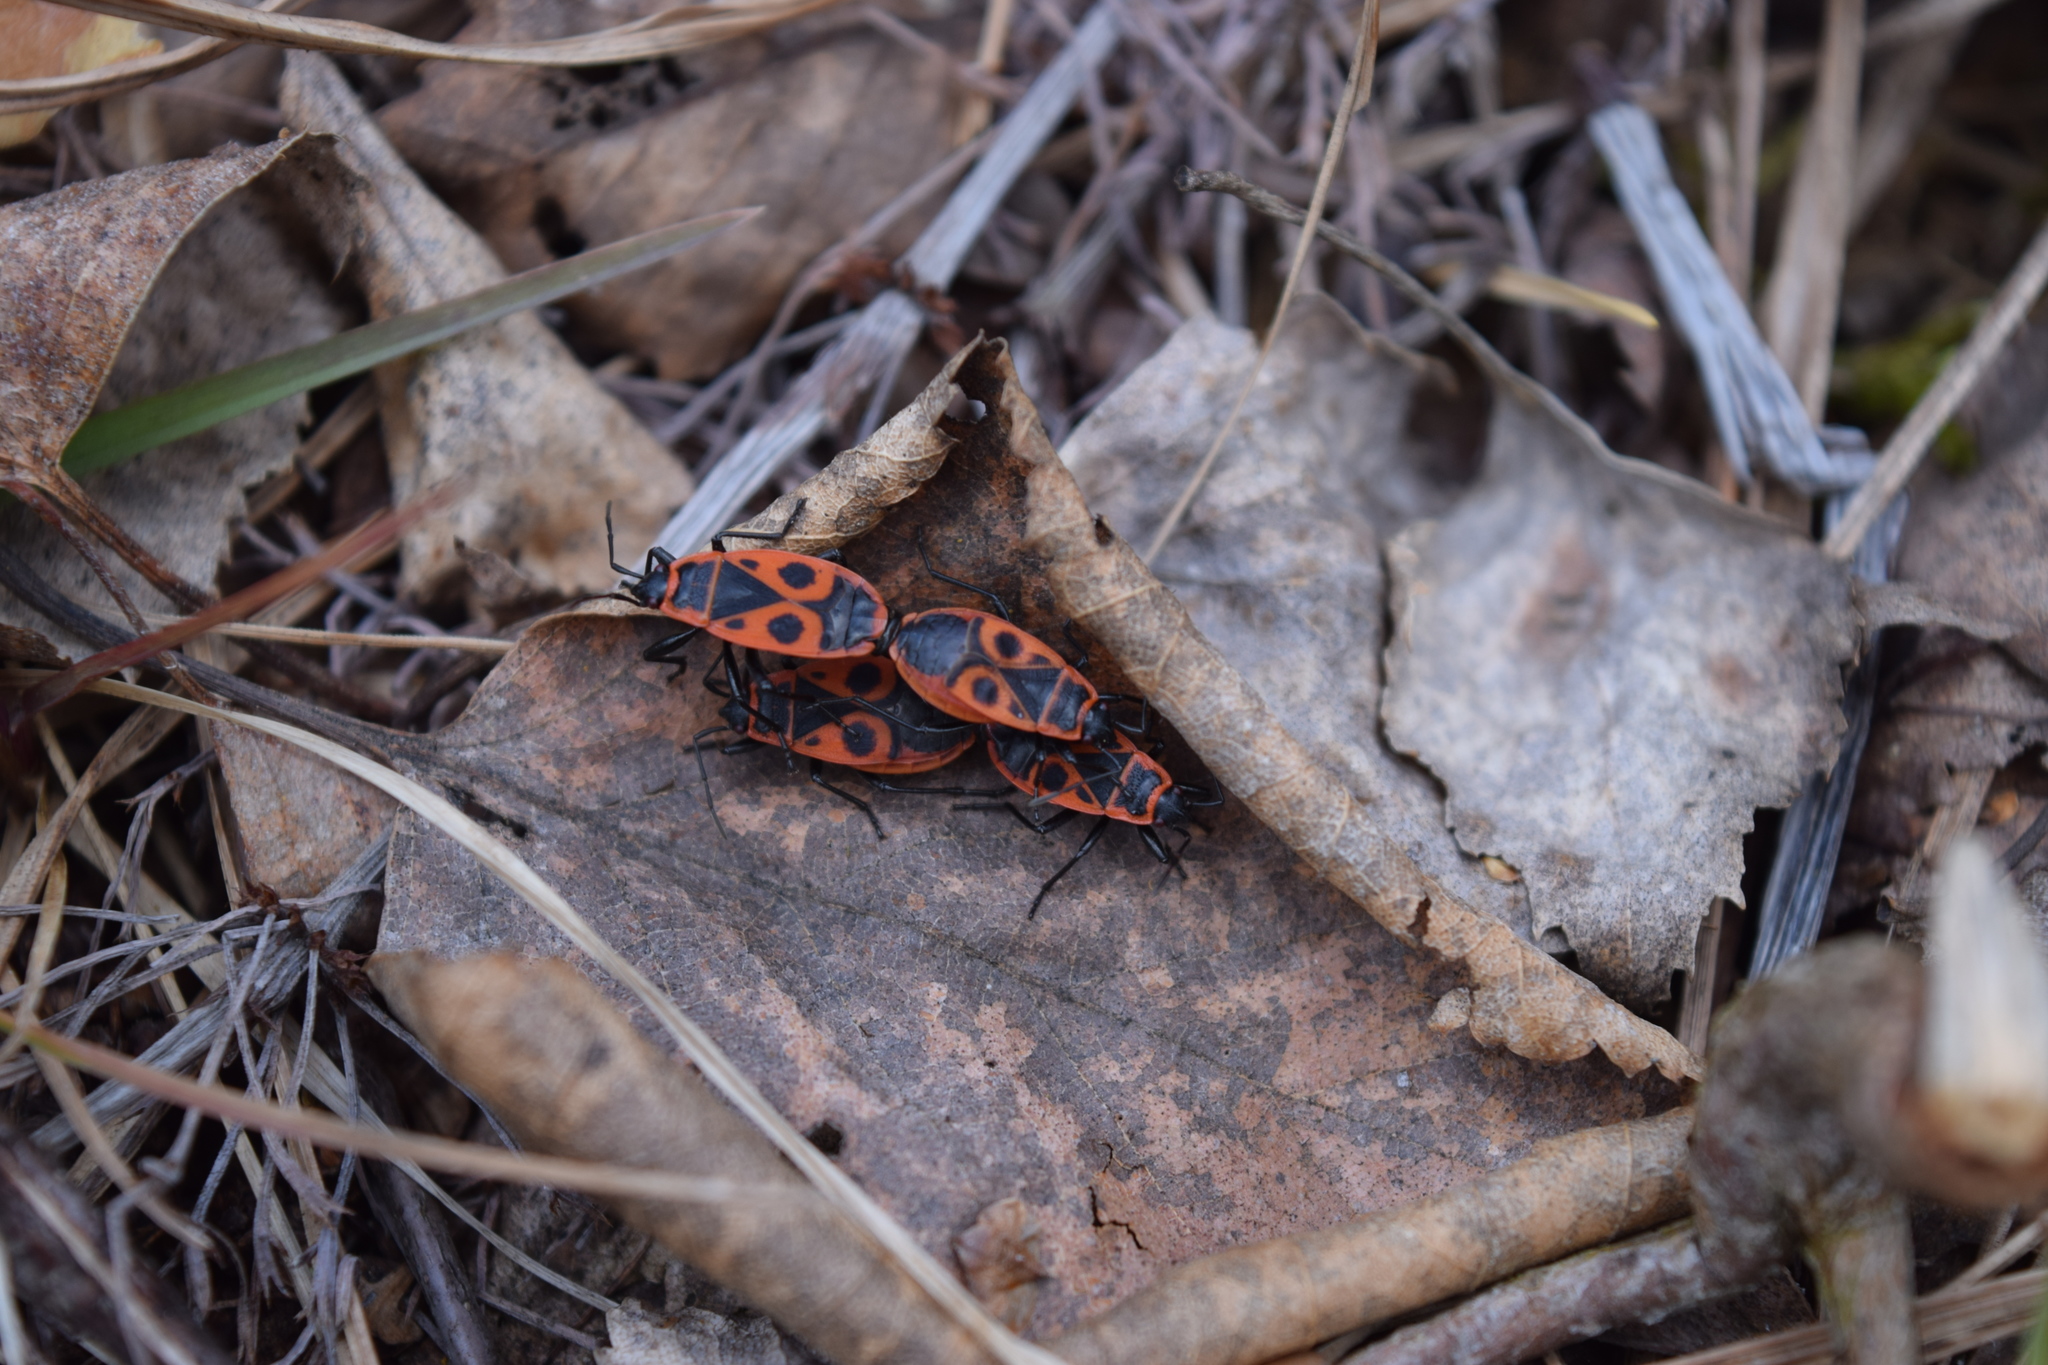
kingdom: Animalia
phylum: Arthropoda
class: Insecta
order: Hemiptera
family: Pyrrhocoridae
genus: Pyrrhocoris
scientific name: Pyrrhocoris apterus
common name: Firebug
